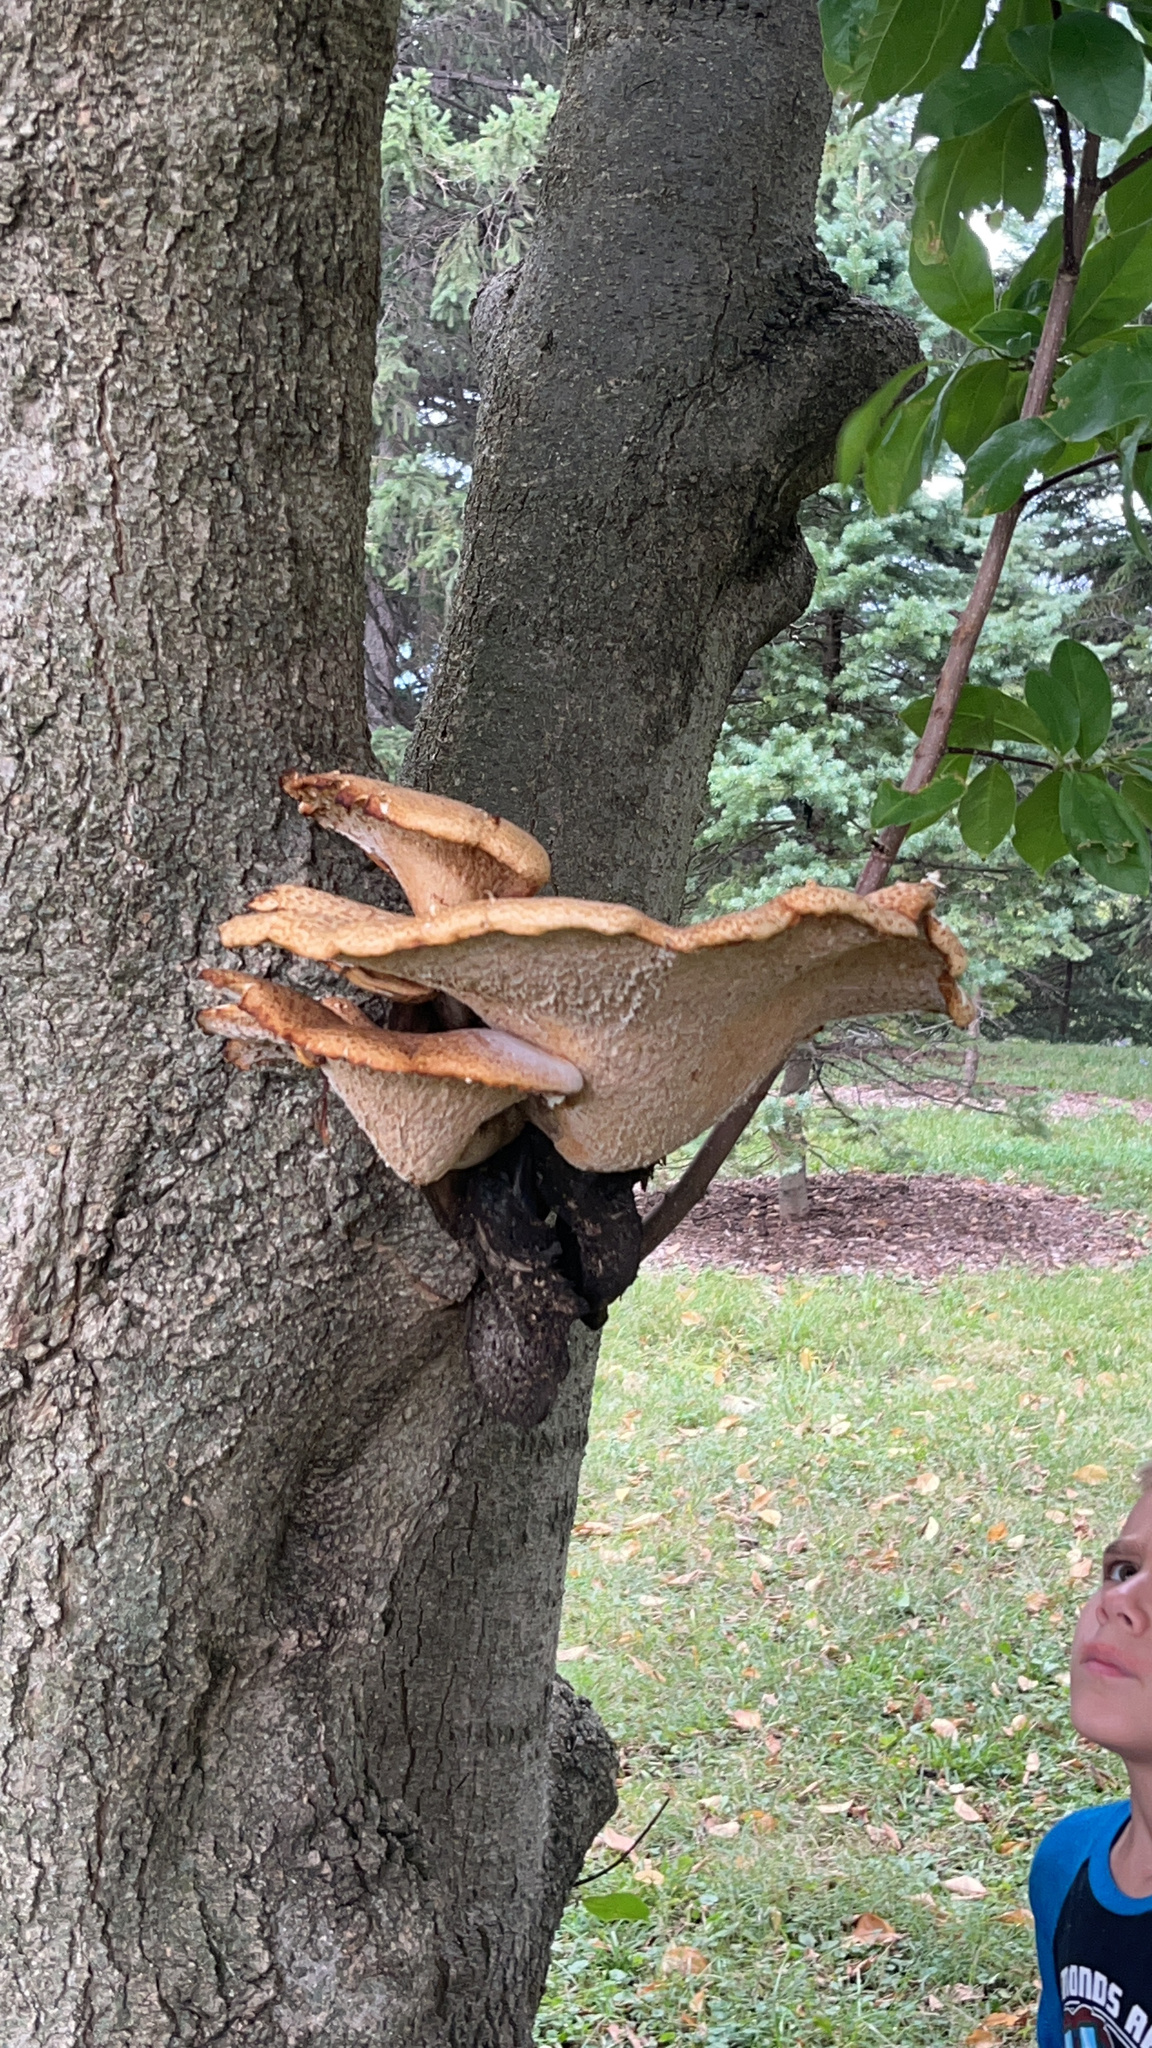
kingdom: Fungi
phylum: Basidiomycota
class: Agaricomycetes
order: Polyporales
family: Polyporaceae
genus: Cerioporus
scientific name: Cerioporus squamosus
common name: Dryad's saddle
